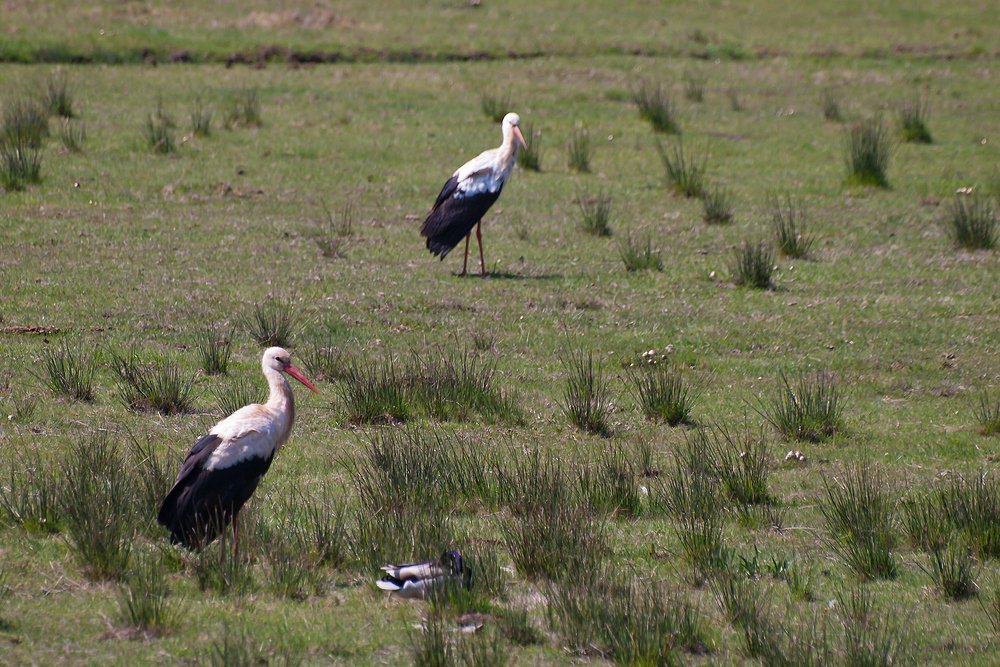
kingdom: Animalia
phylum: Chordata
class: Aves
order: Ciconiiformes
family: Ciconiidae
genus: Ciconia
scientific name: Ciconia ciconia
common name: White stork
